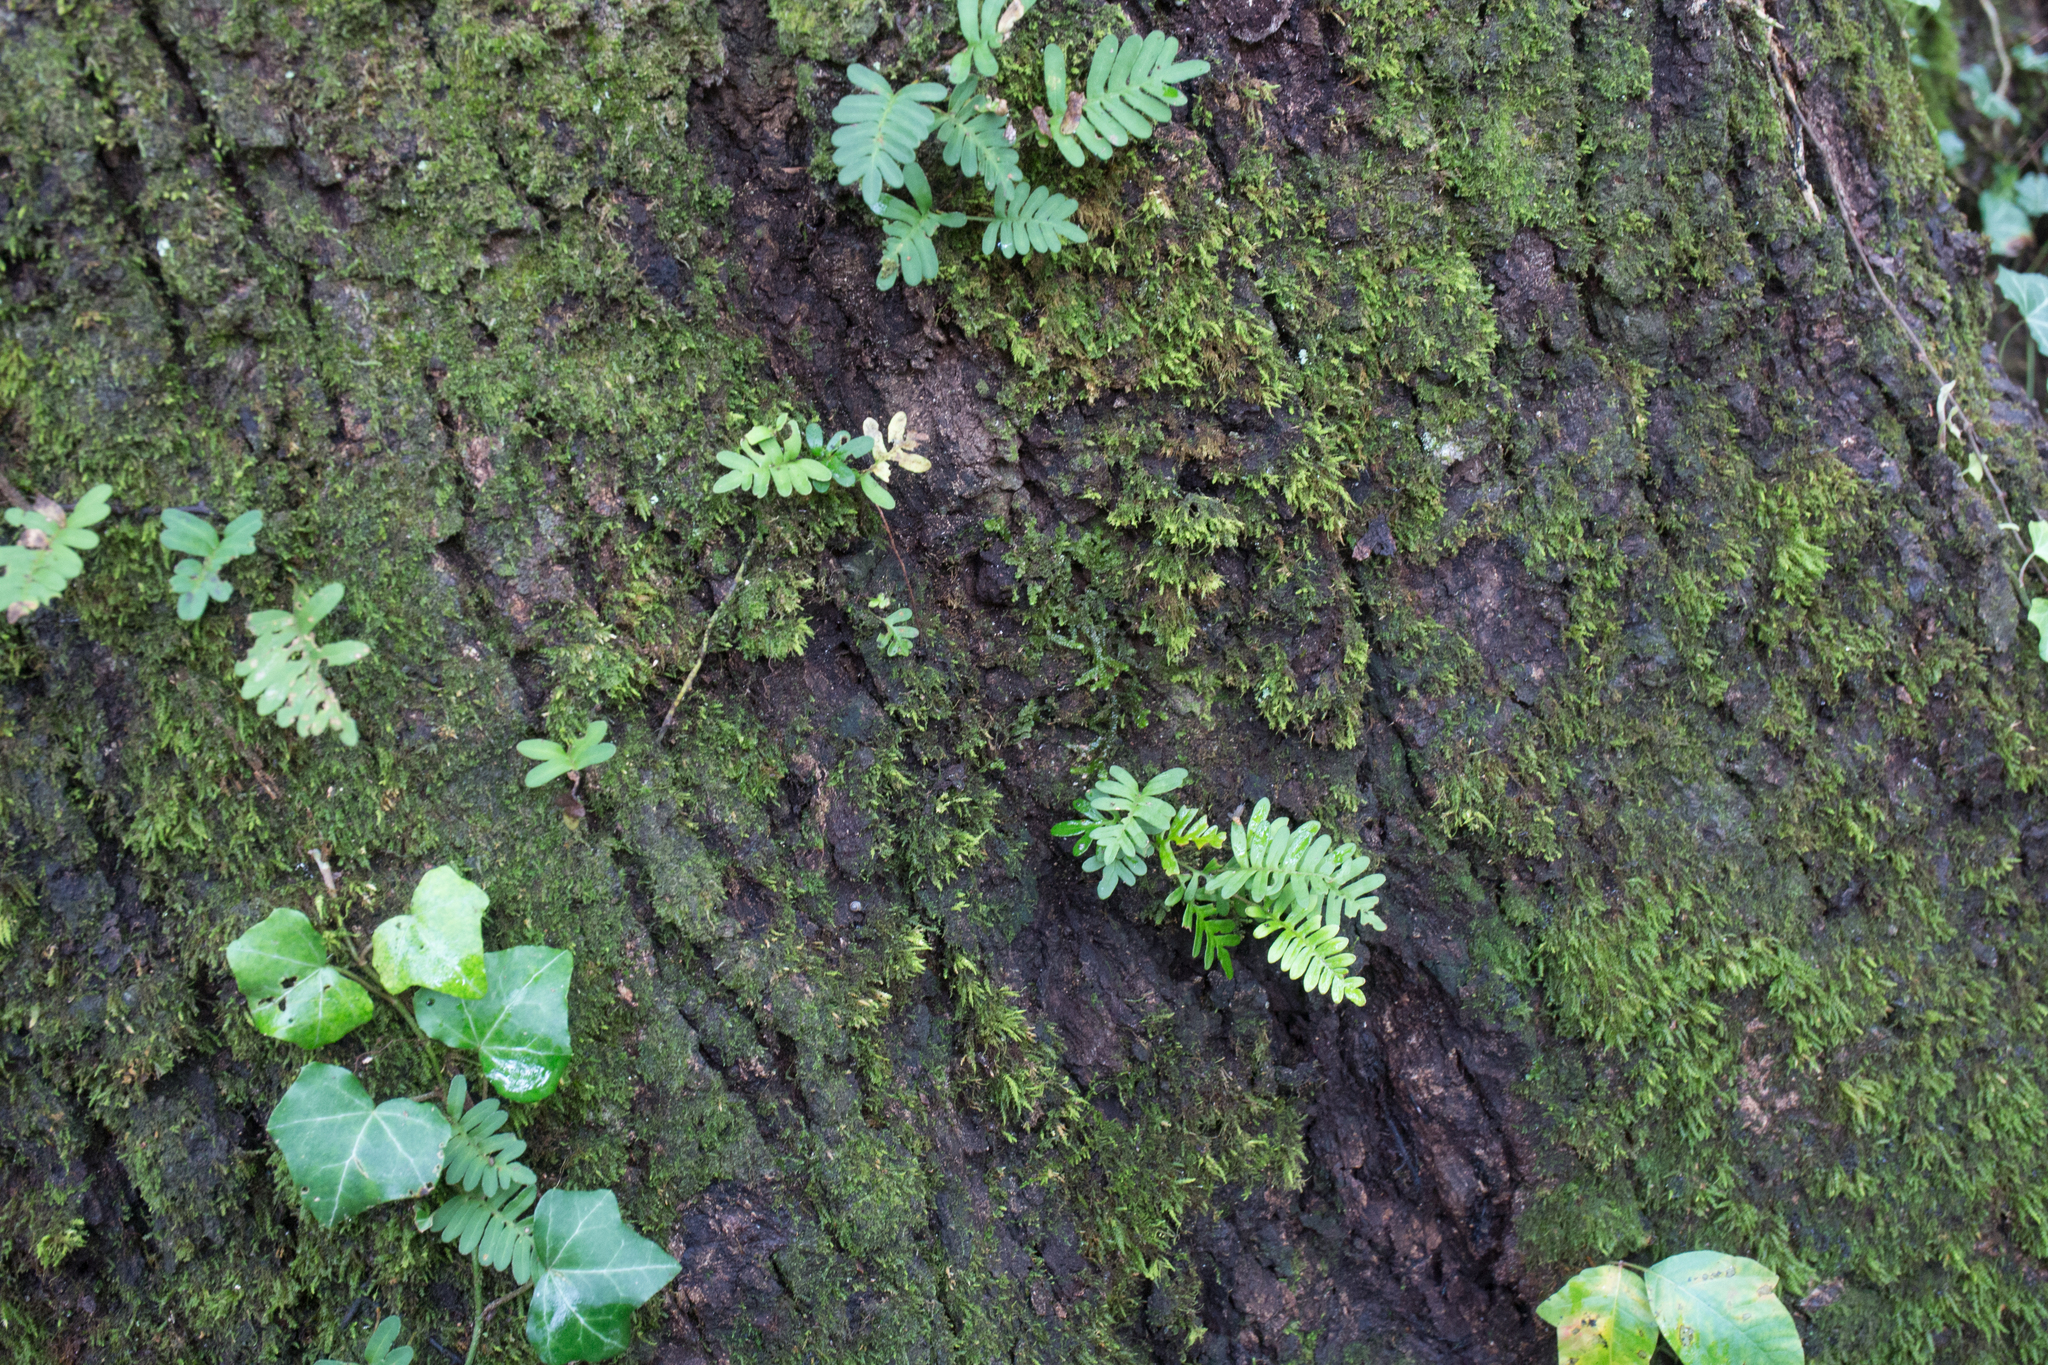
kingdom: Plantae
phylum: Tracheophyta
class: Polypodiopsida
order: Polypodiales
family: Polypodiaceae
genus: Pleopeltis
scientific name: Pleopeltis michauxiana
